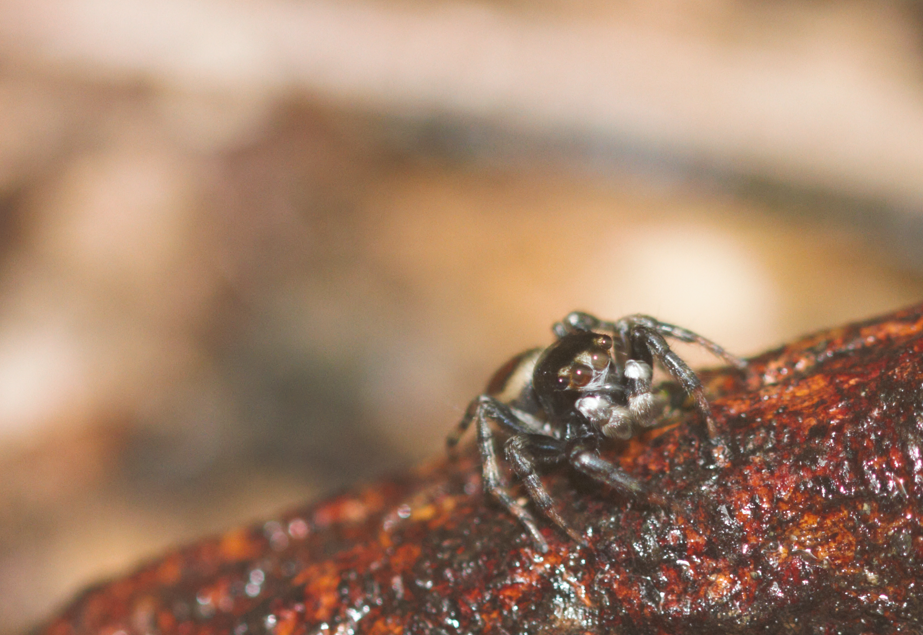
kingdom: Animalia
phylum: Arthropoda
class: Arachnida
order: Araneae
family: Salticidae
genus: Kalcerrytus
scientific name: Kalcerrytus
